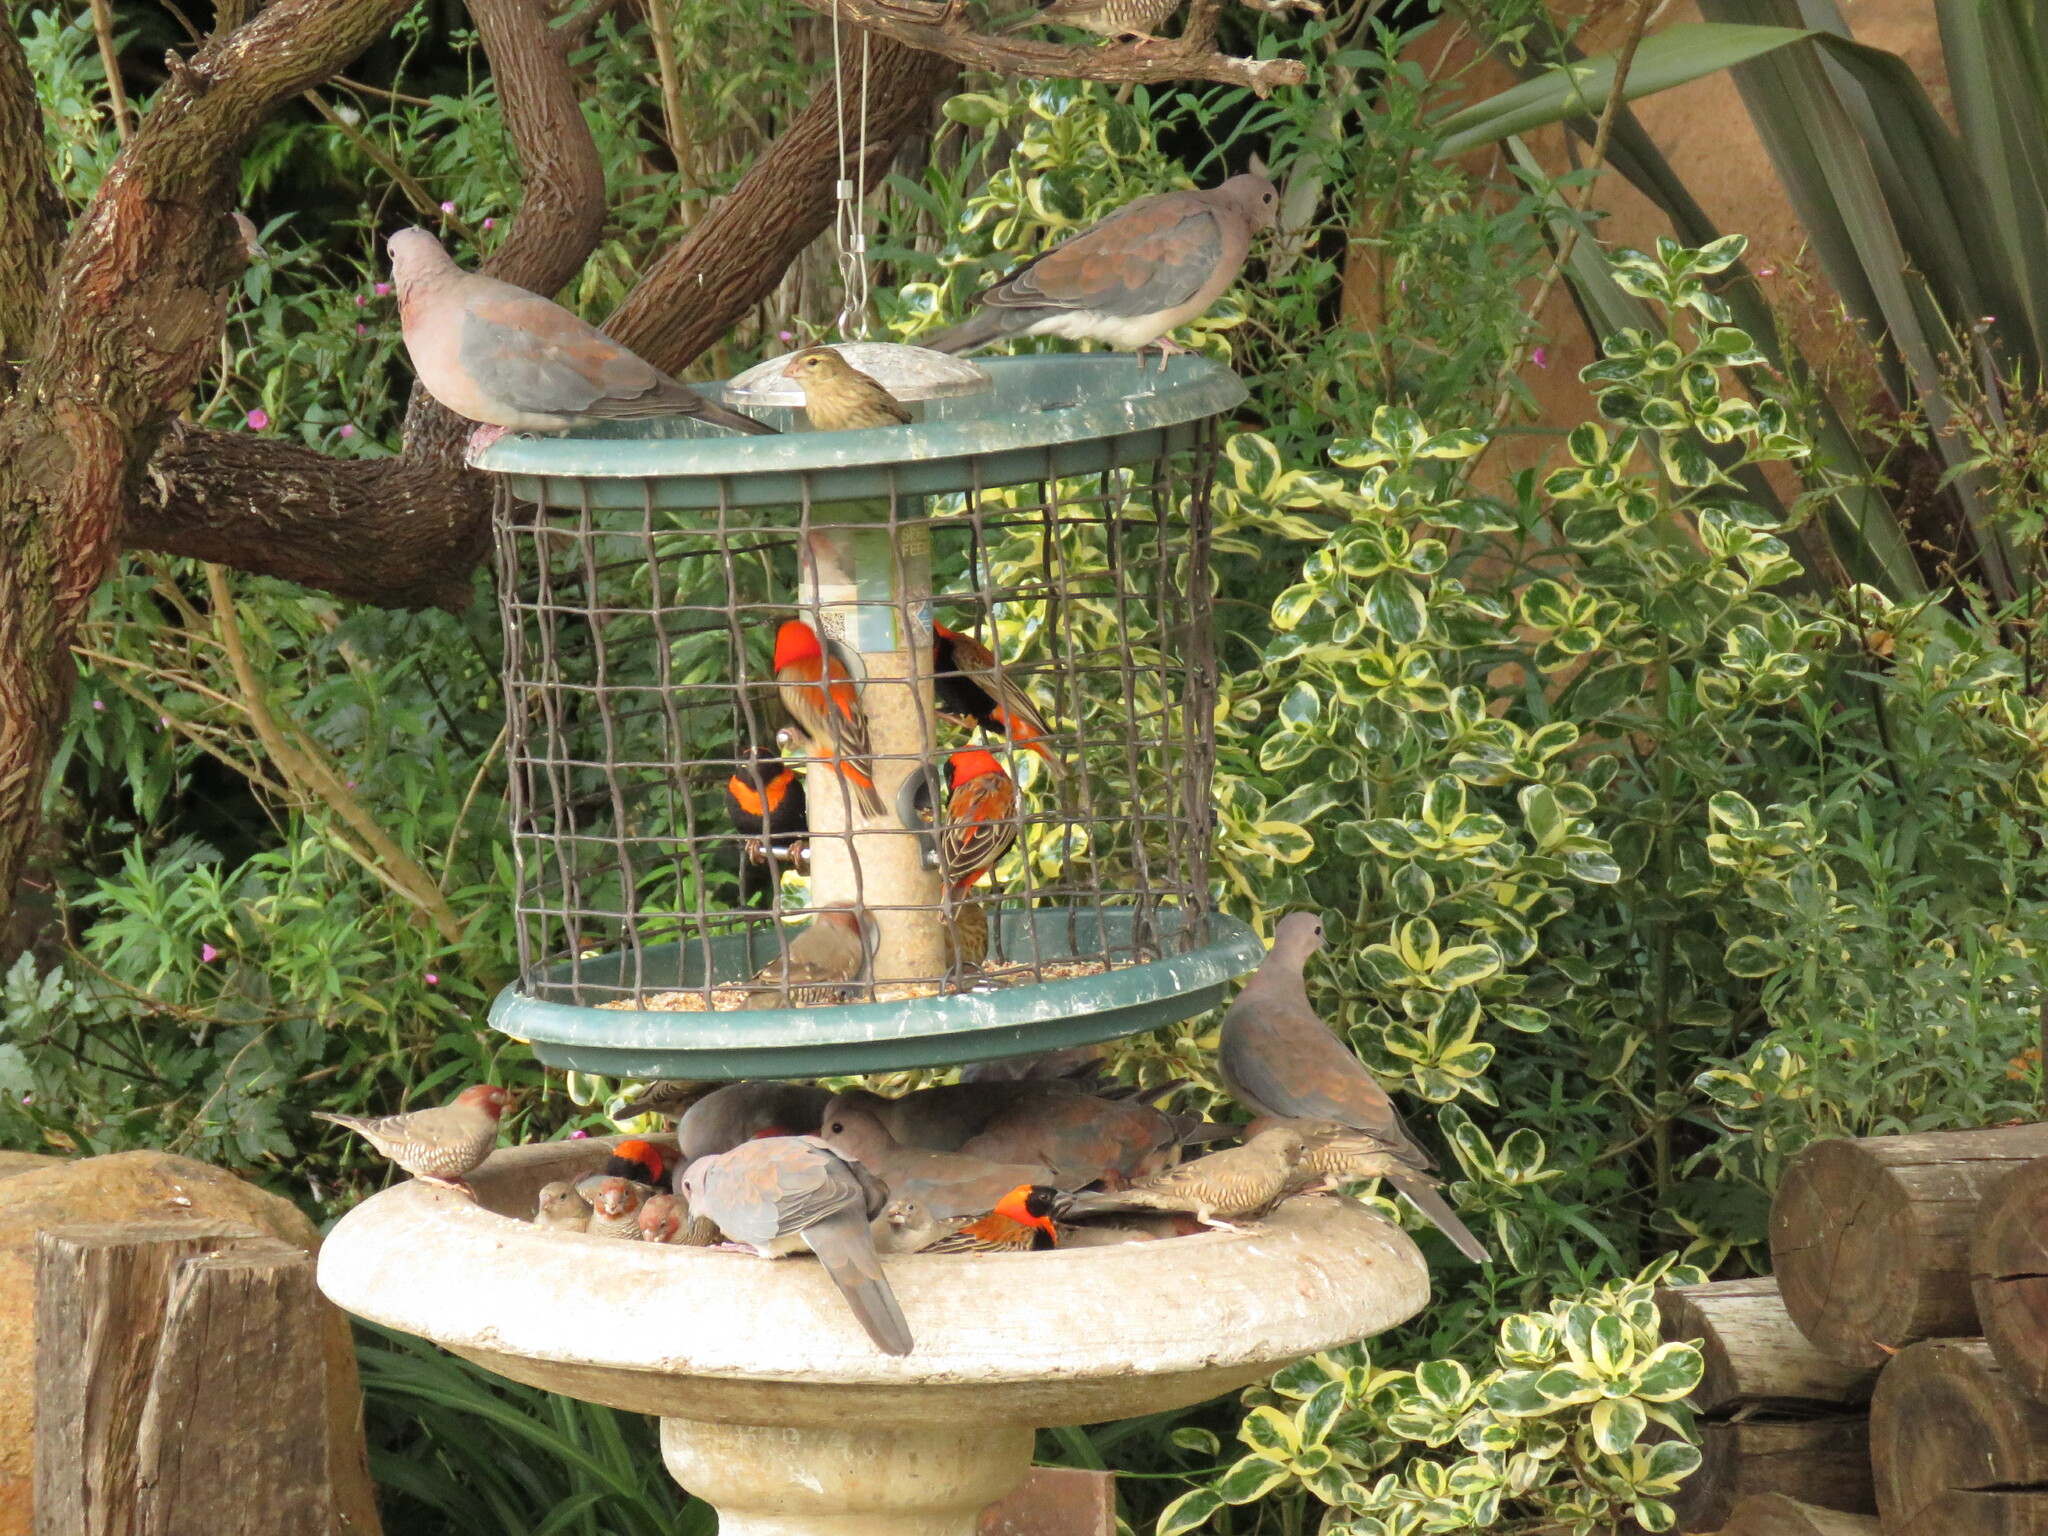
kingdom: Animalia
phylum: Chordata
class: Aves
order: Passeriformes
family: Estrildidae
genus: Amadina
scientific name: Amadina erythrocephala
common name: Red-headed finch
